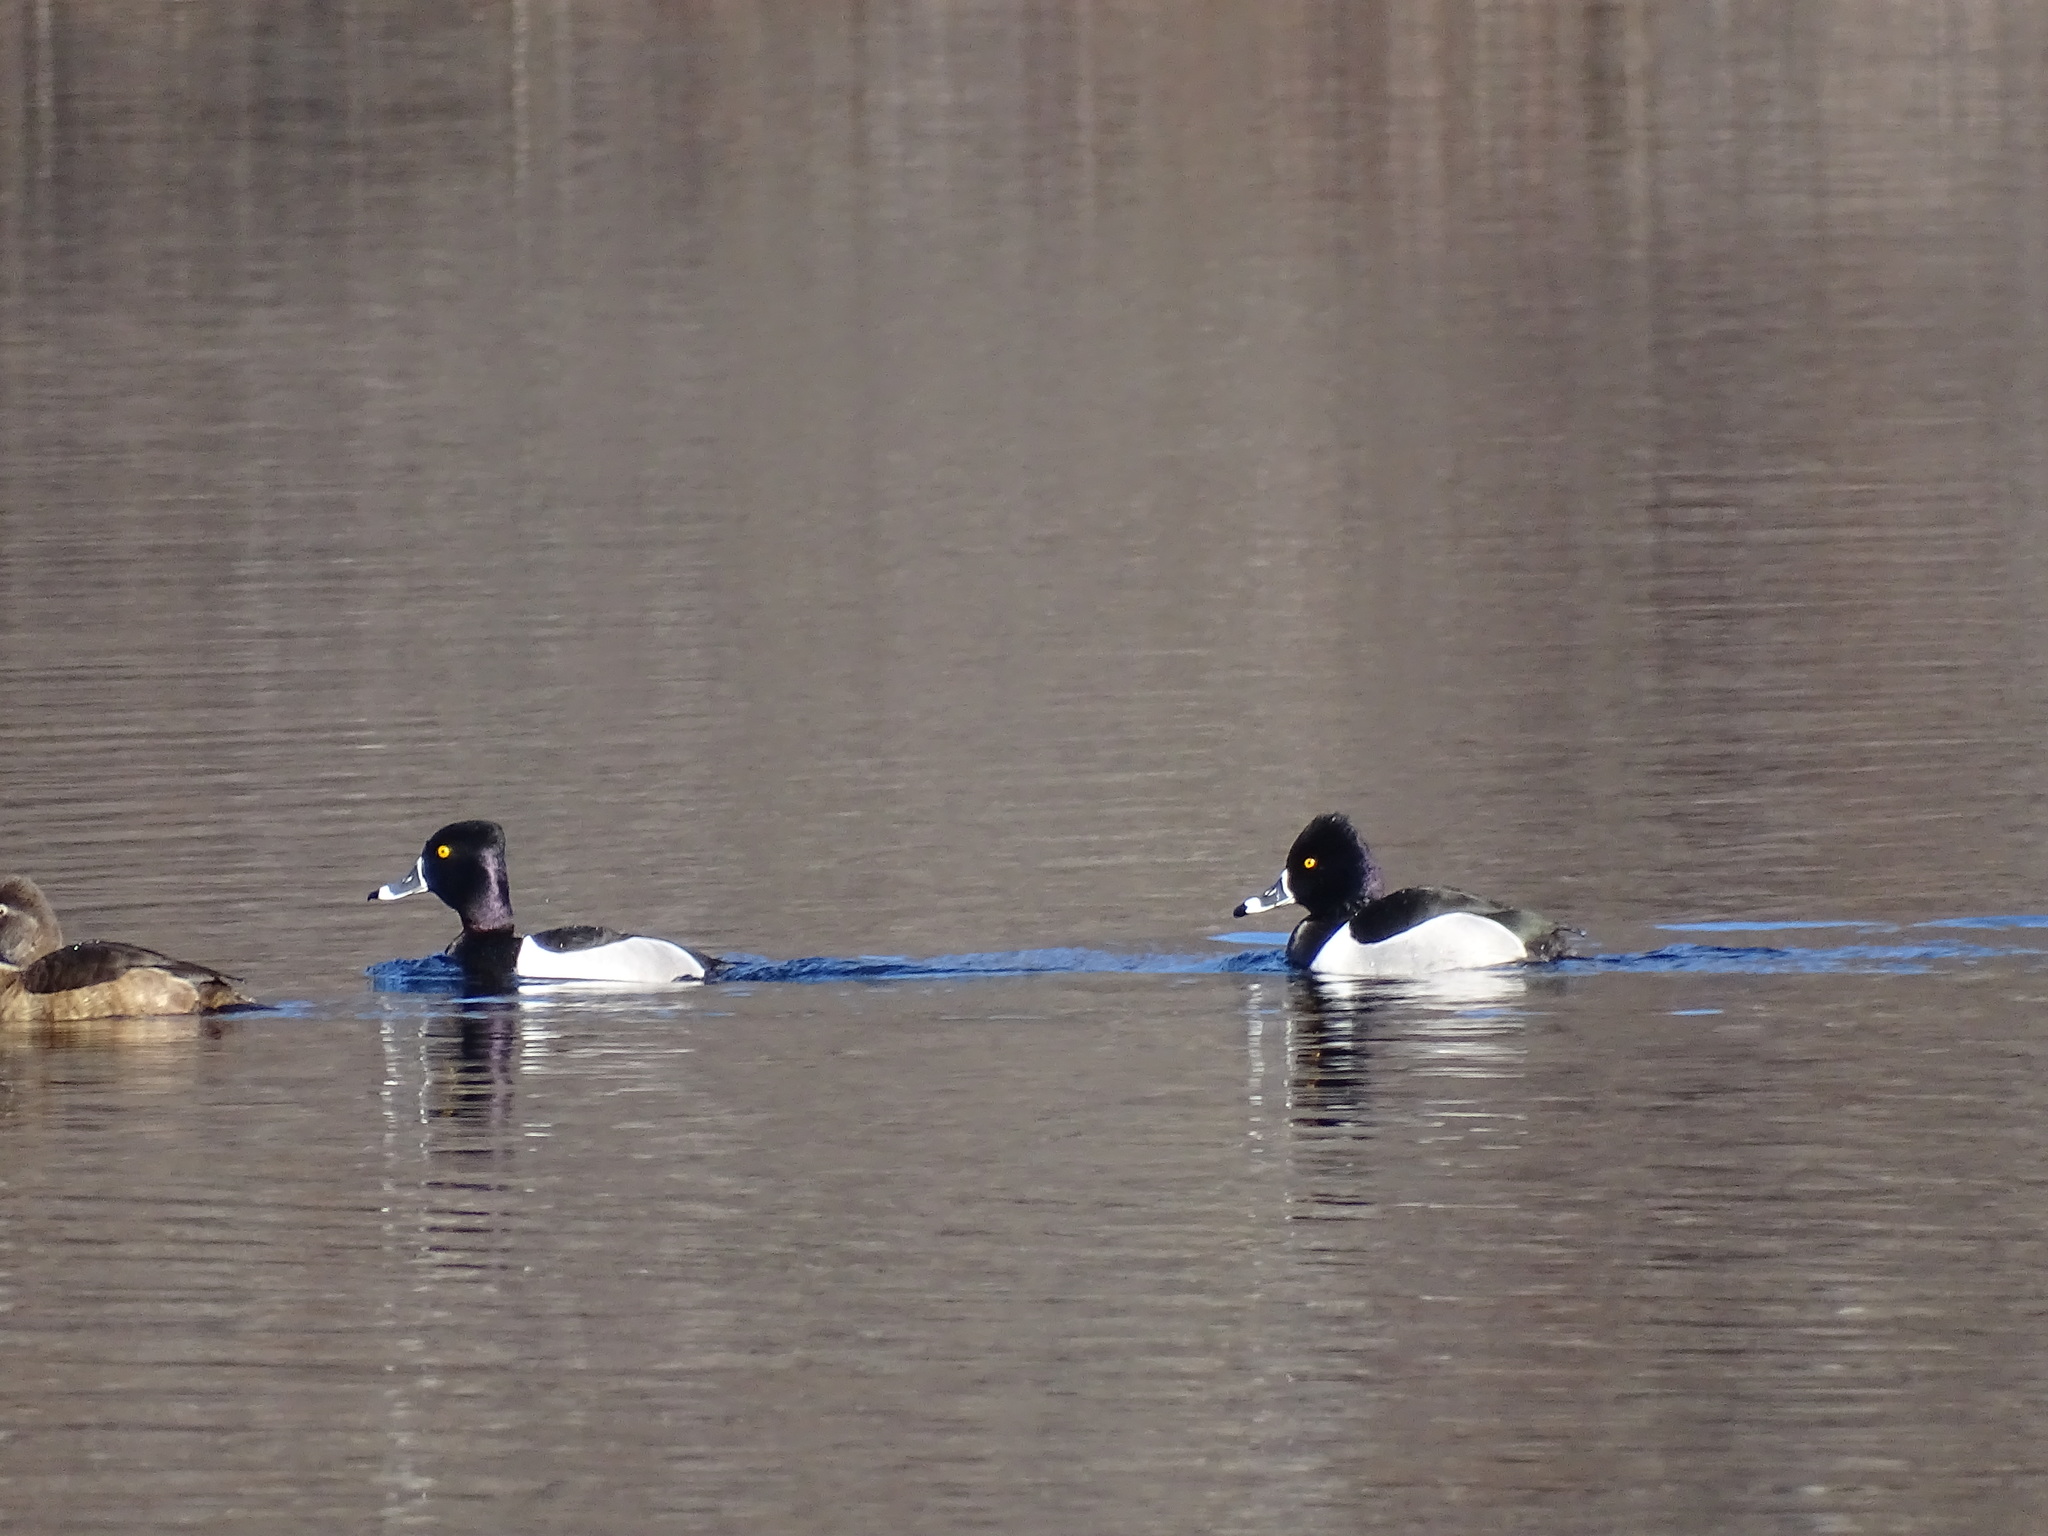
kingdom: Animalia
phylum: Chordata
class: Aves
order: Anseriformes
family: Anatidae
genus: Aythya
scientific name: Aythya collaris
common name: Ring-necked duck
